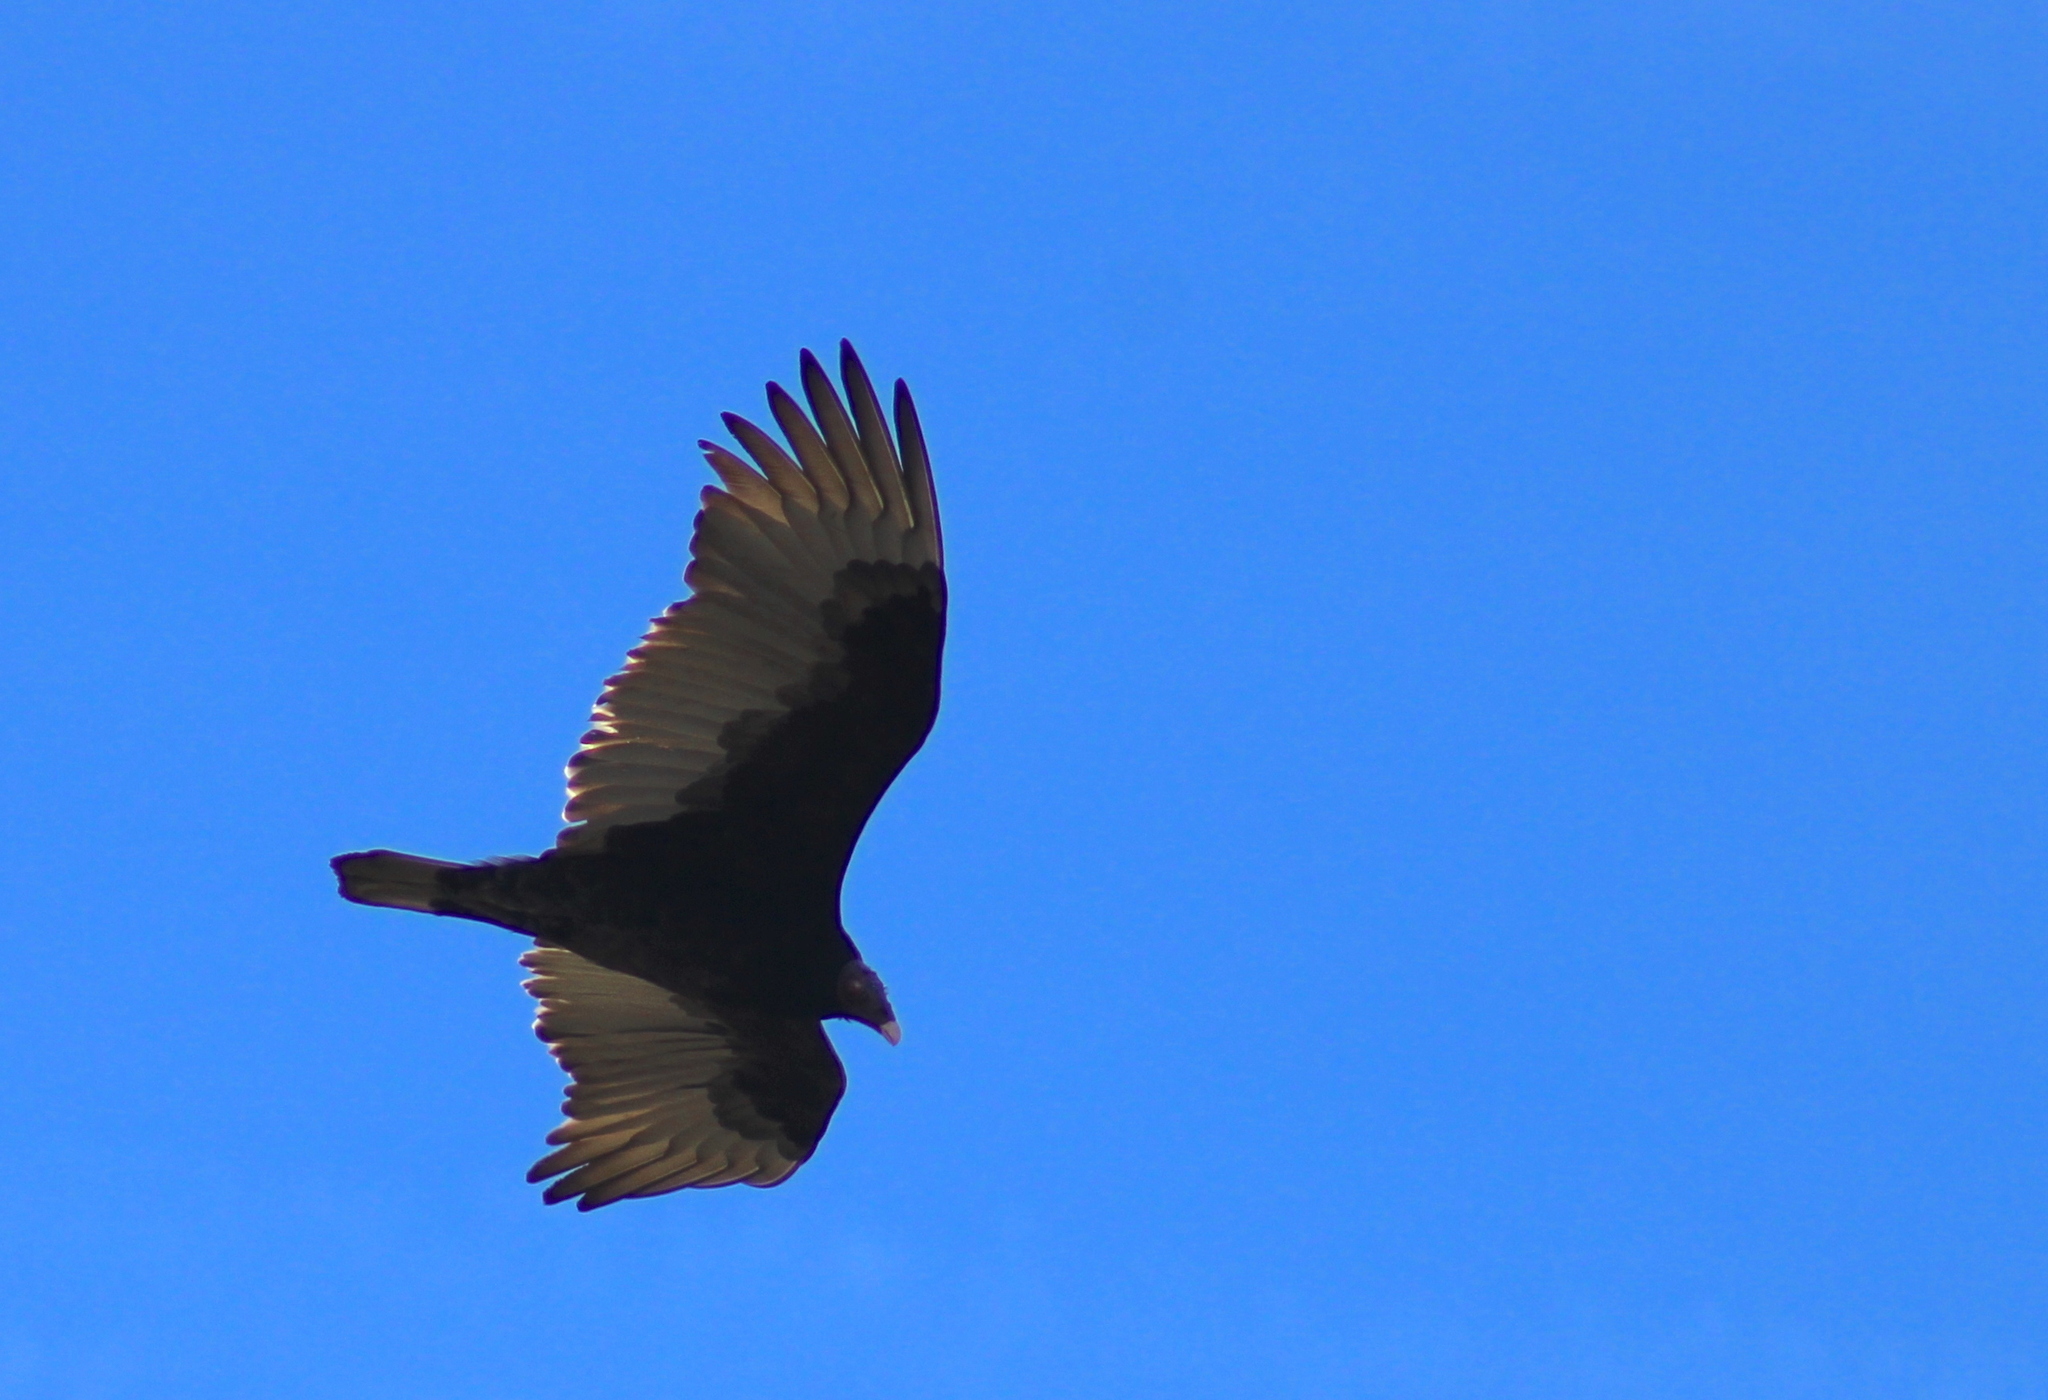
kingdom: Animalia
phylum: Chordata
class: Aves
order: Accipitriformes
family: Cathartidae
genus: Cathartes
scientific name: Cathartes aura
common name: Turkey vulture
